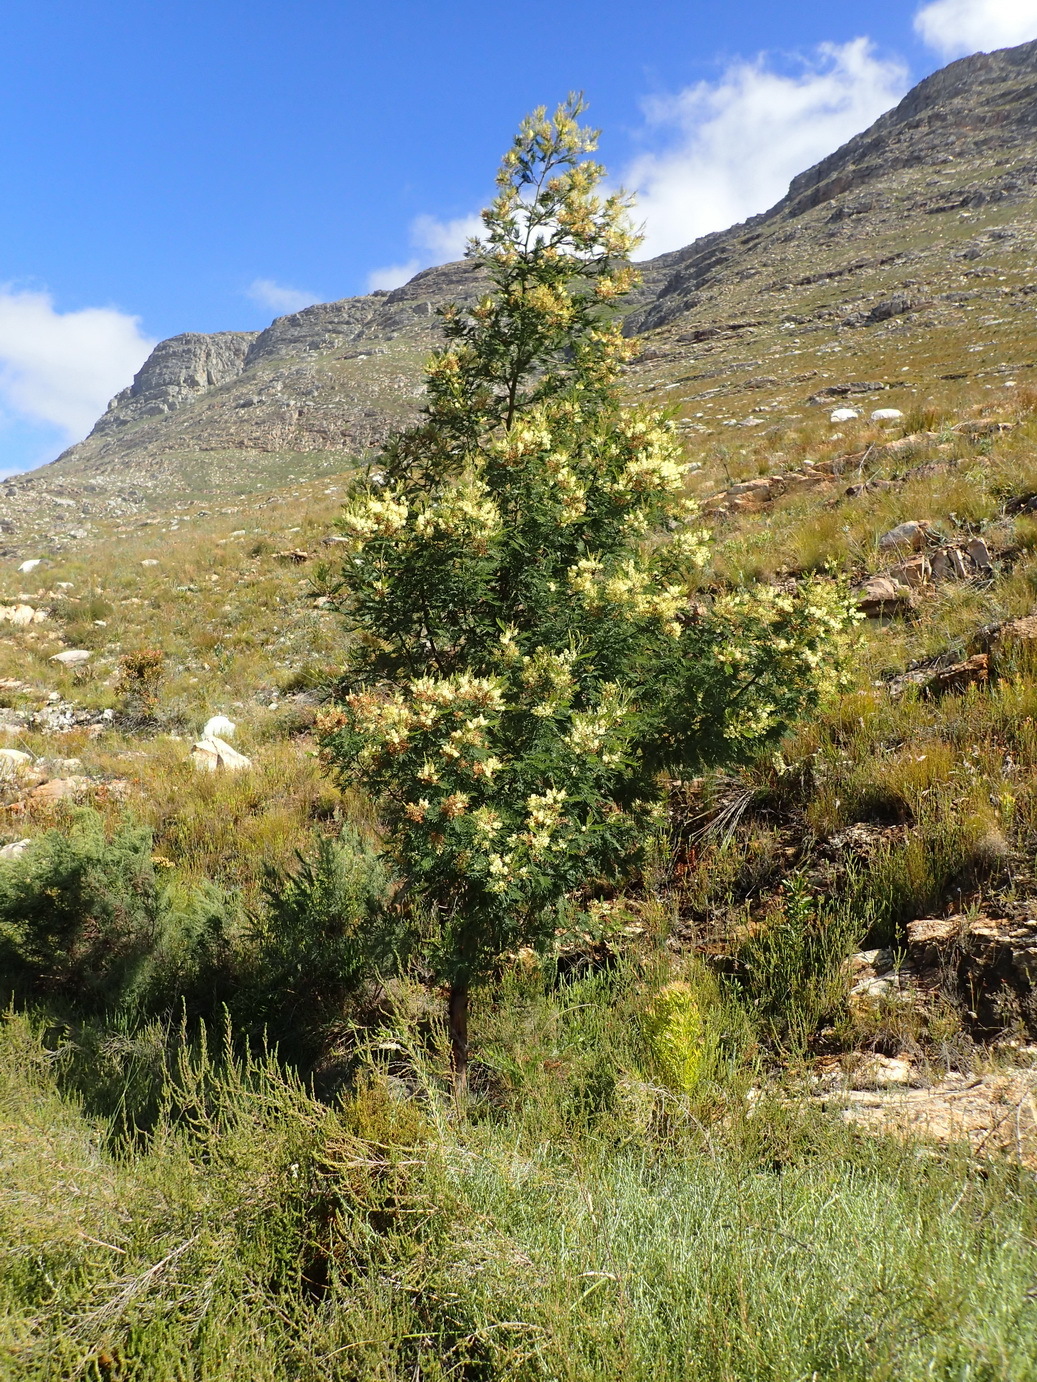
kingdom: Plantae
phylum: Tracheophyta
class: Magnoliopsida
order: Fabales
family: Fabaceae
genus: Acacia
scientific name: Acacia mearnsii
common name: Black wattle
